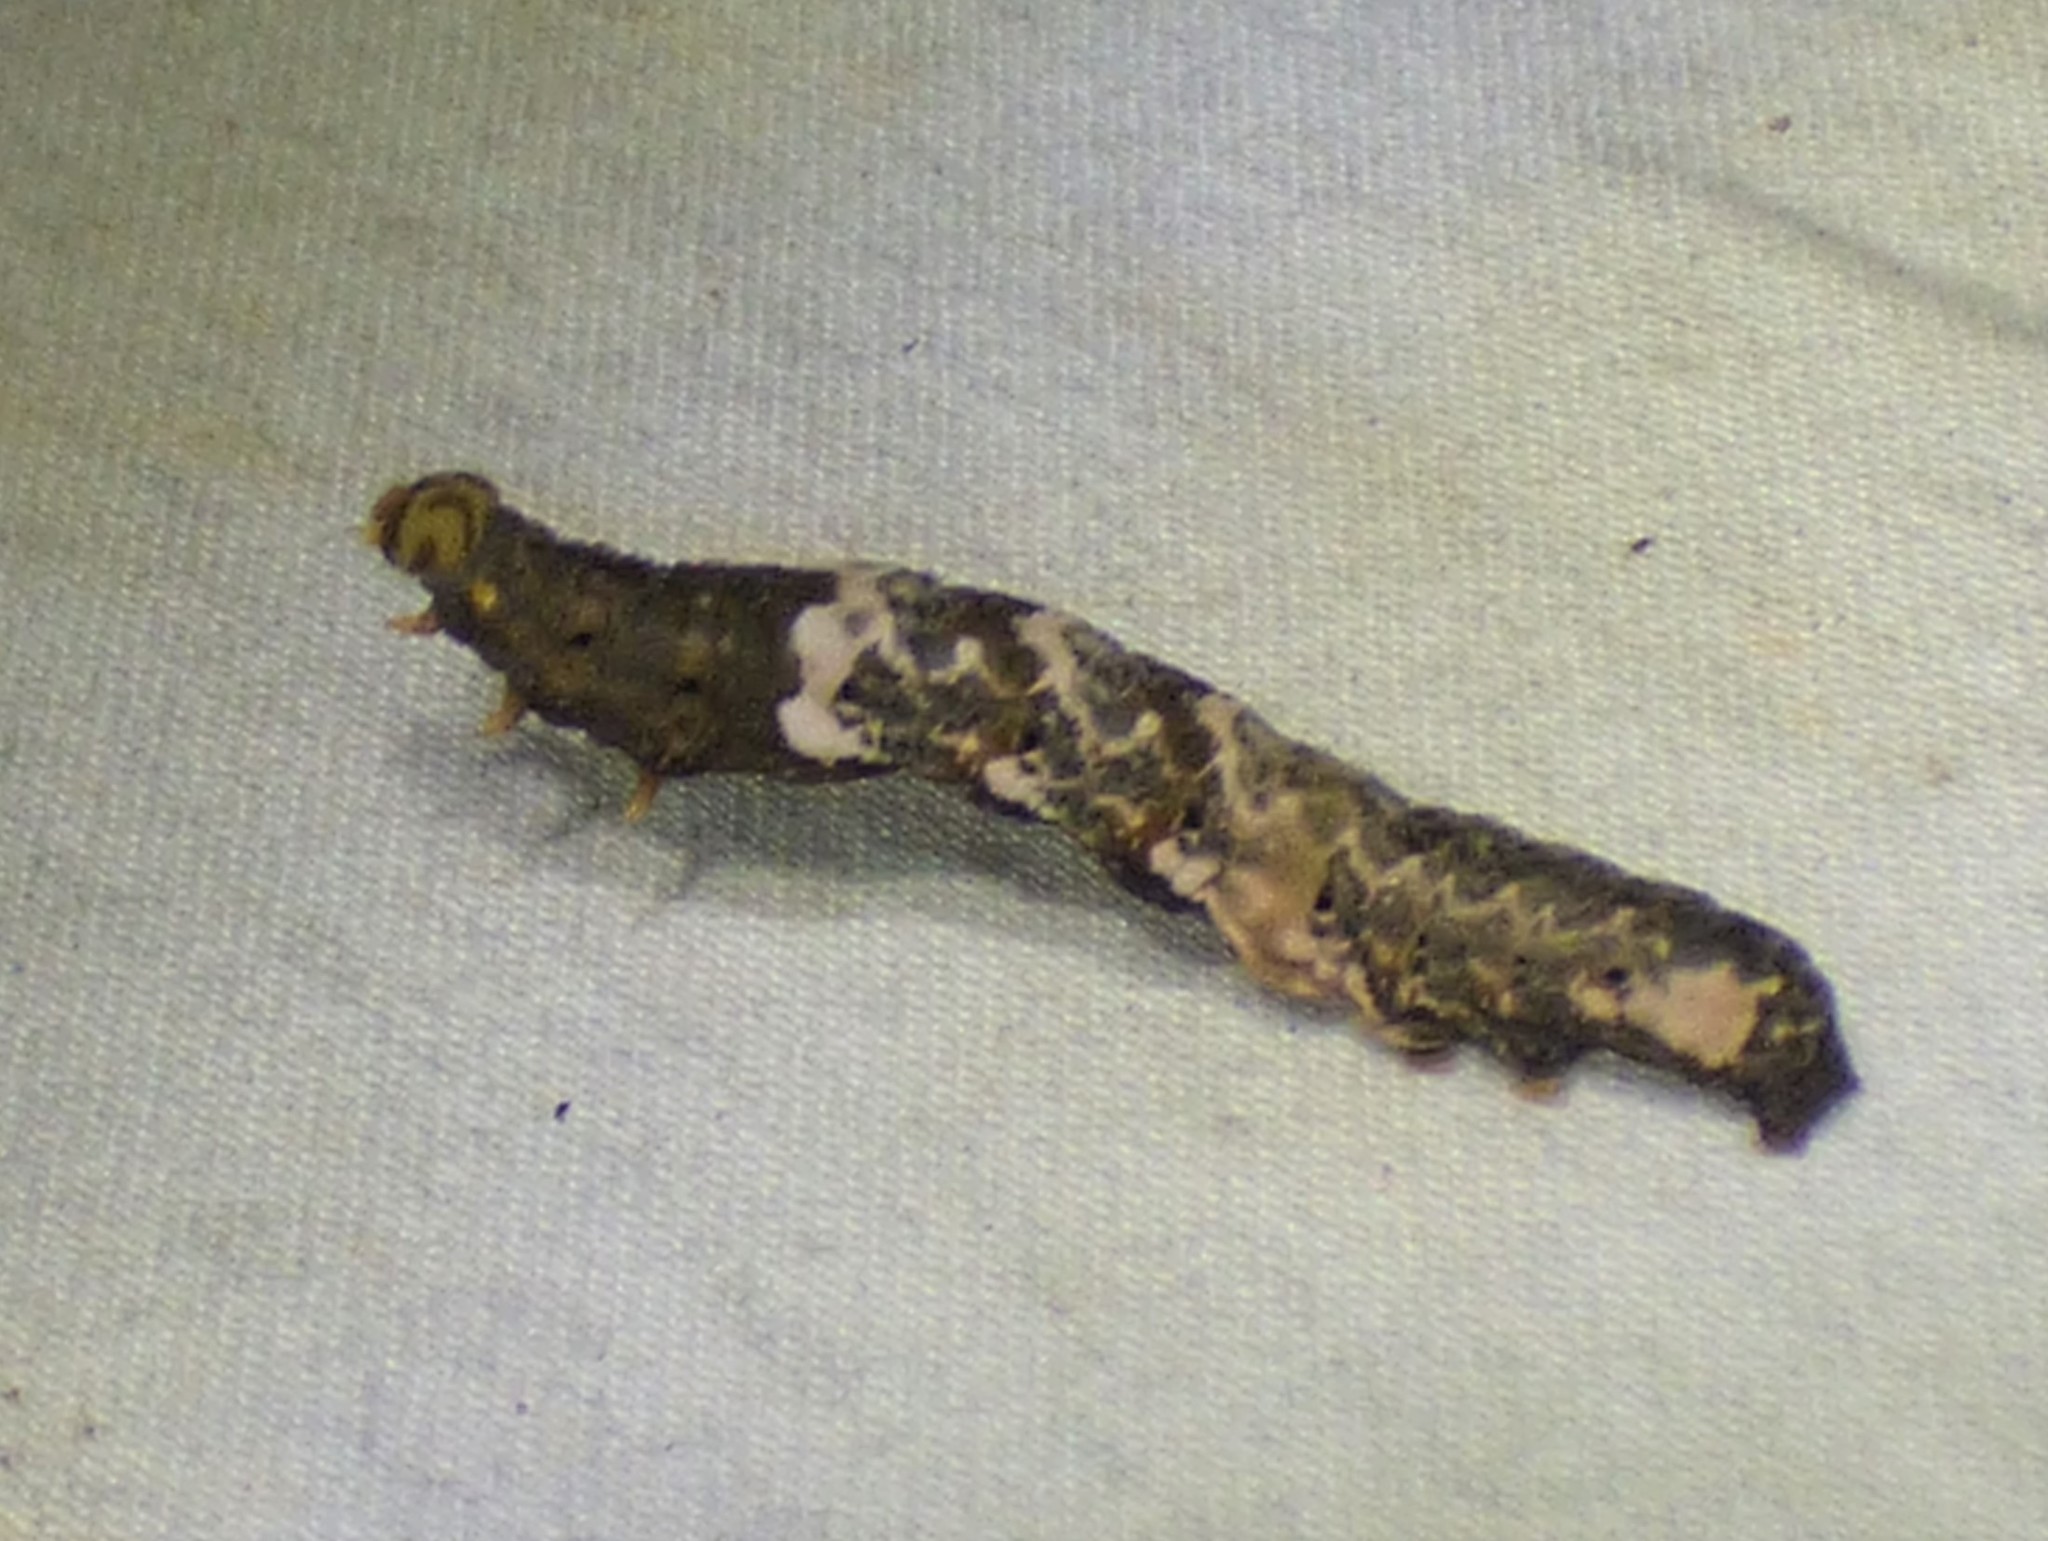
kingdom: Animalia
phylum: Arthropoda
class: Insecta
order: Lepidoptera
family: Erebidae
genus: Plusiodonta
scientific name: Plusiodonta compressipalpis
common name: Moonseed moth
